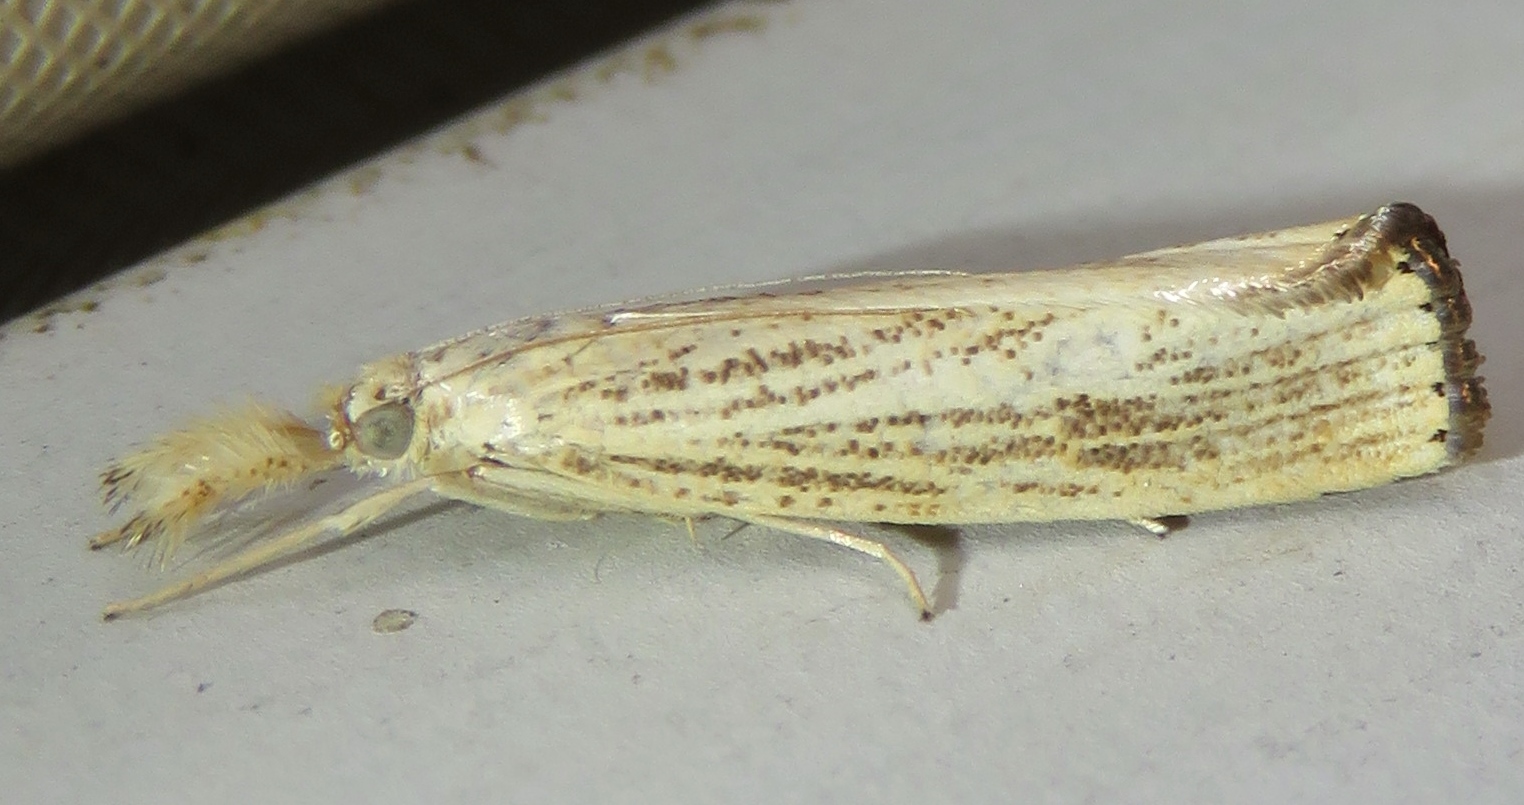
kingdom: Animalia
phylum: Arthropoda
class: Insecta
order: Lepidoptera
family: Crambidae
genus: Agriphila
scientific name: Agriphila vulgivagellus
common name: Vagabond crambus moth
